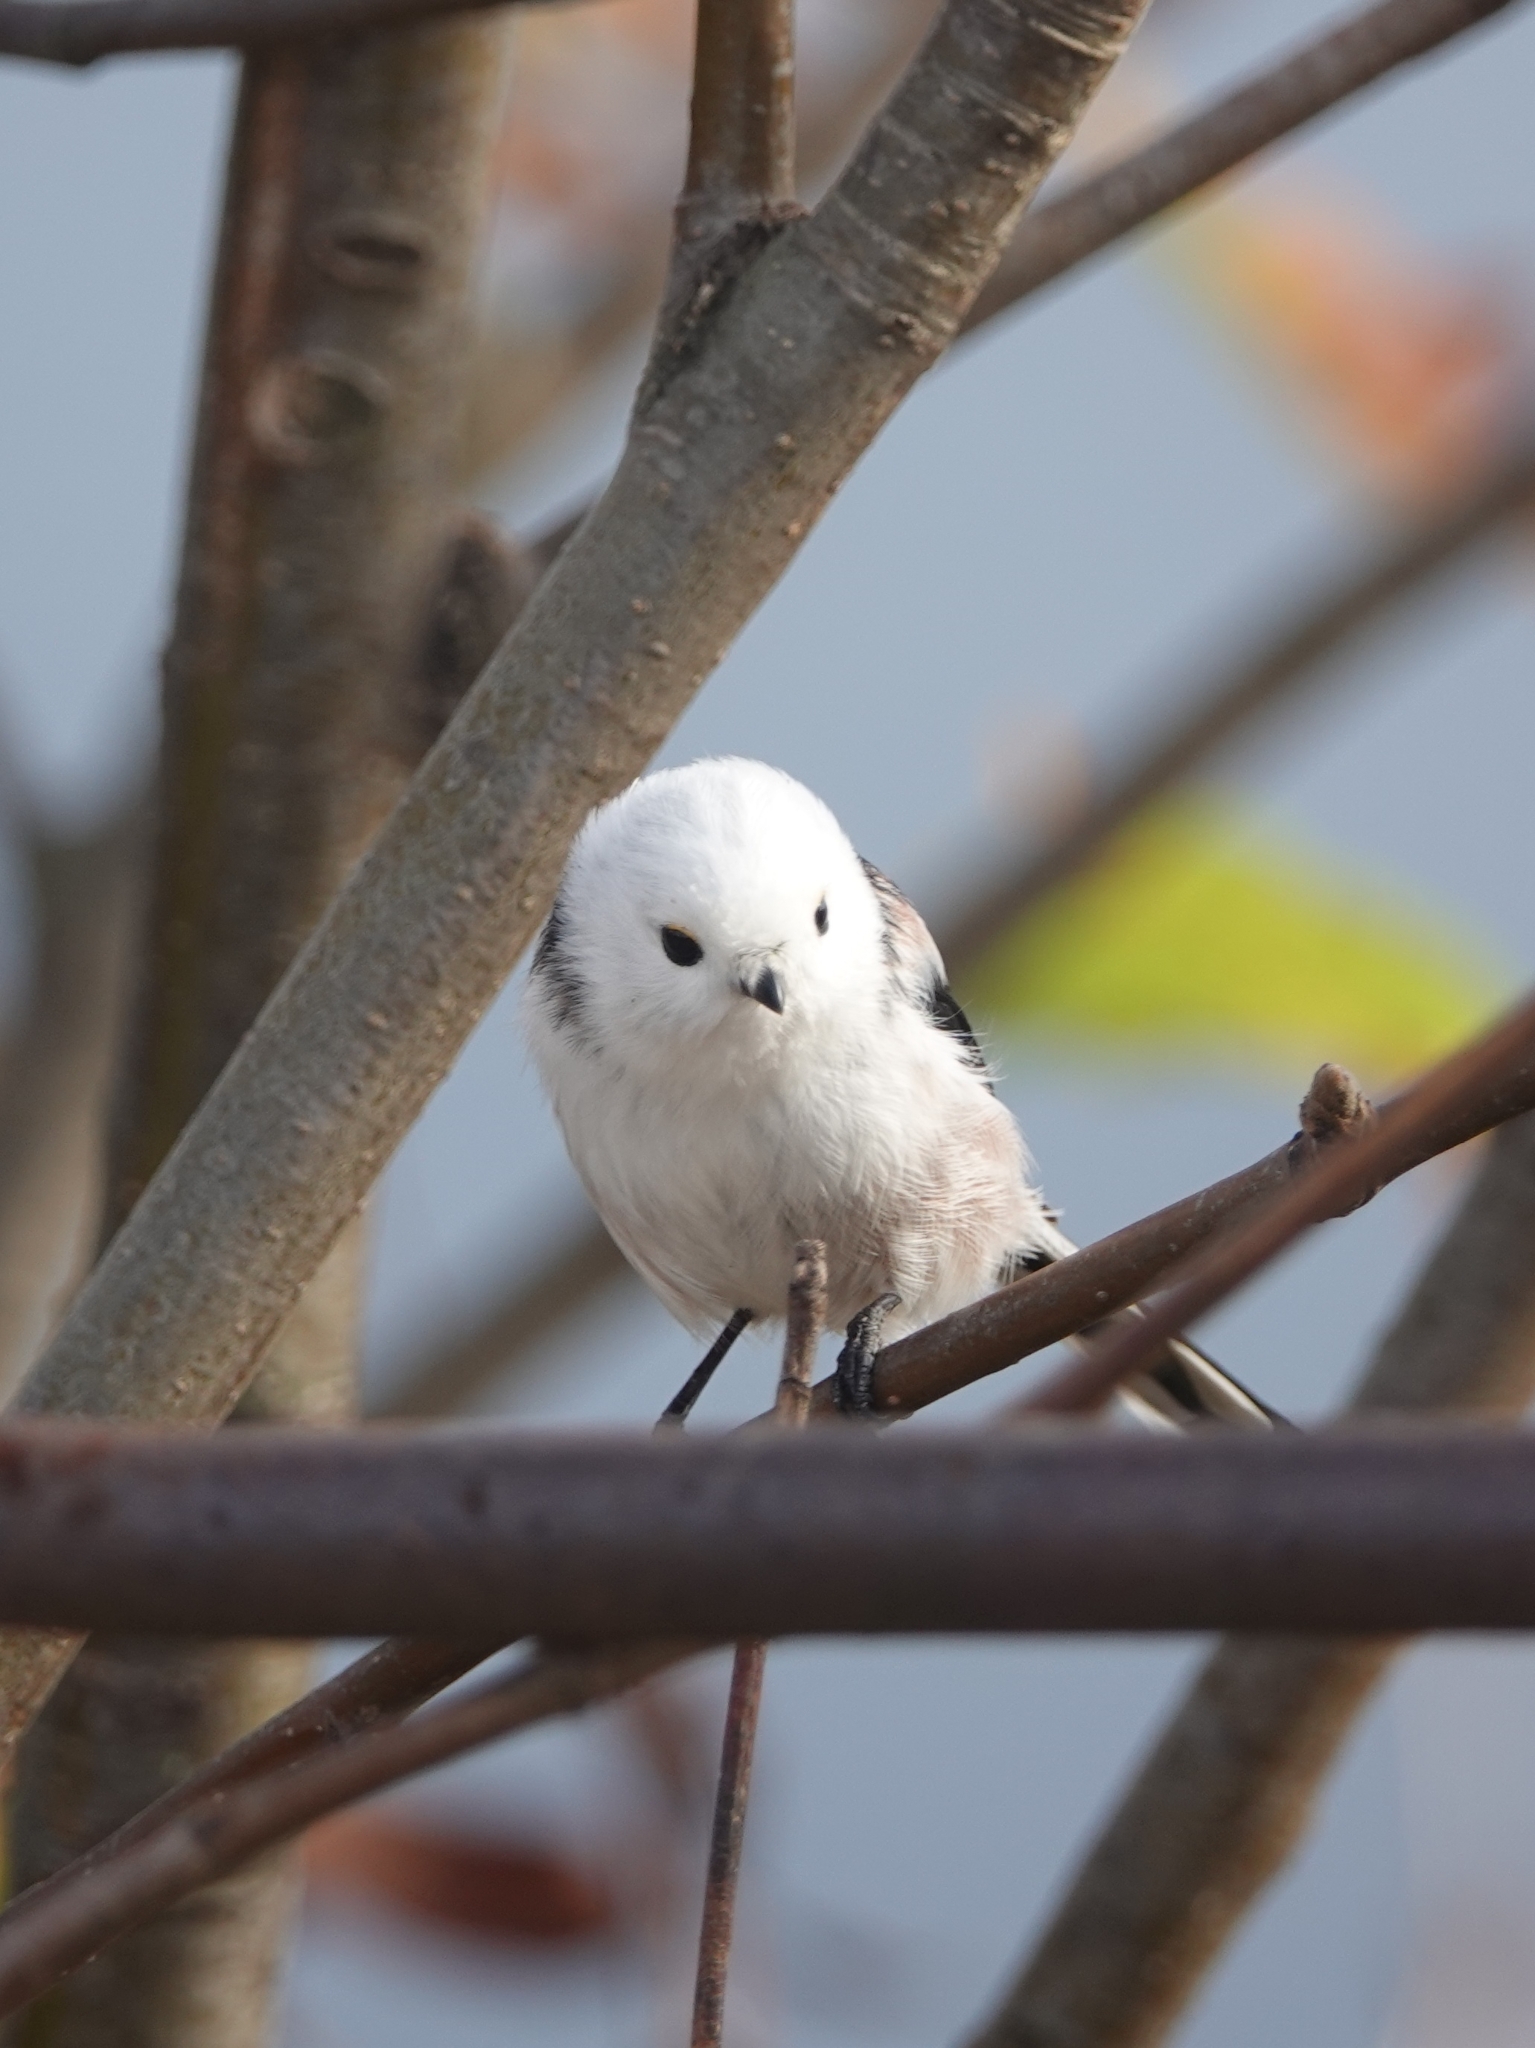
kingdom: Animalia
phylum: Chordata
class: Aves
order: Passeriformes
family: Aegithalidae
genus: Aegithalos
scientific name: Aegithalos caudatus
